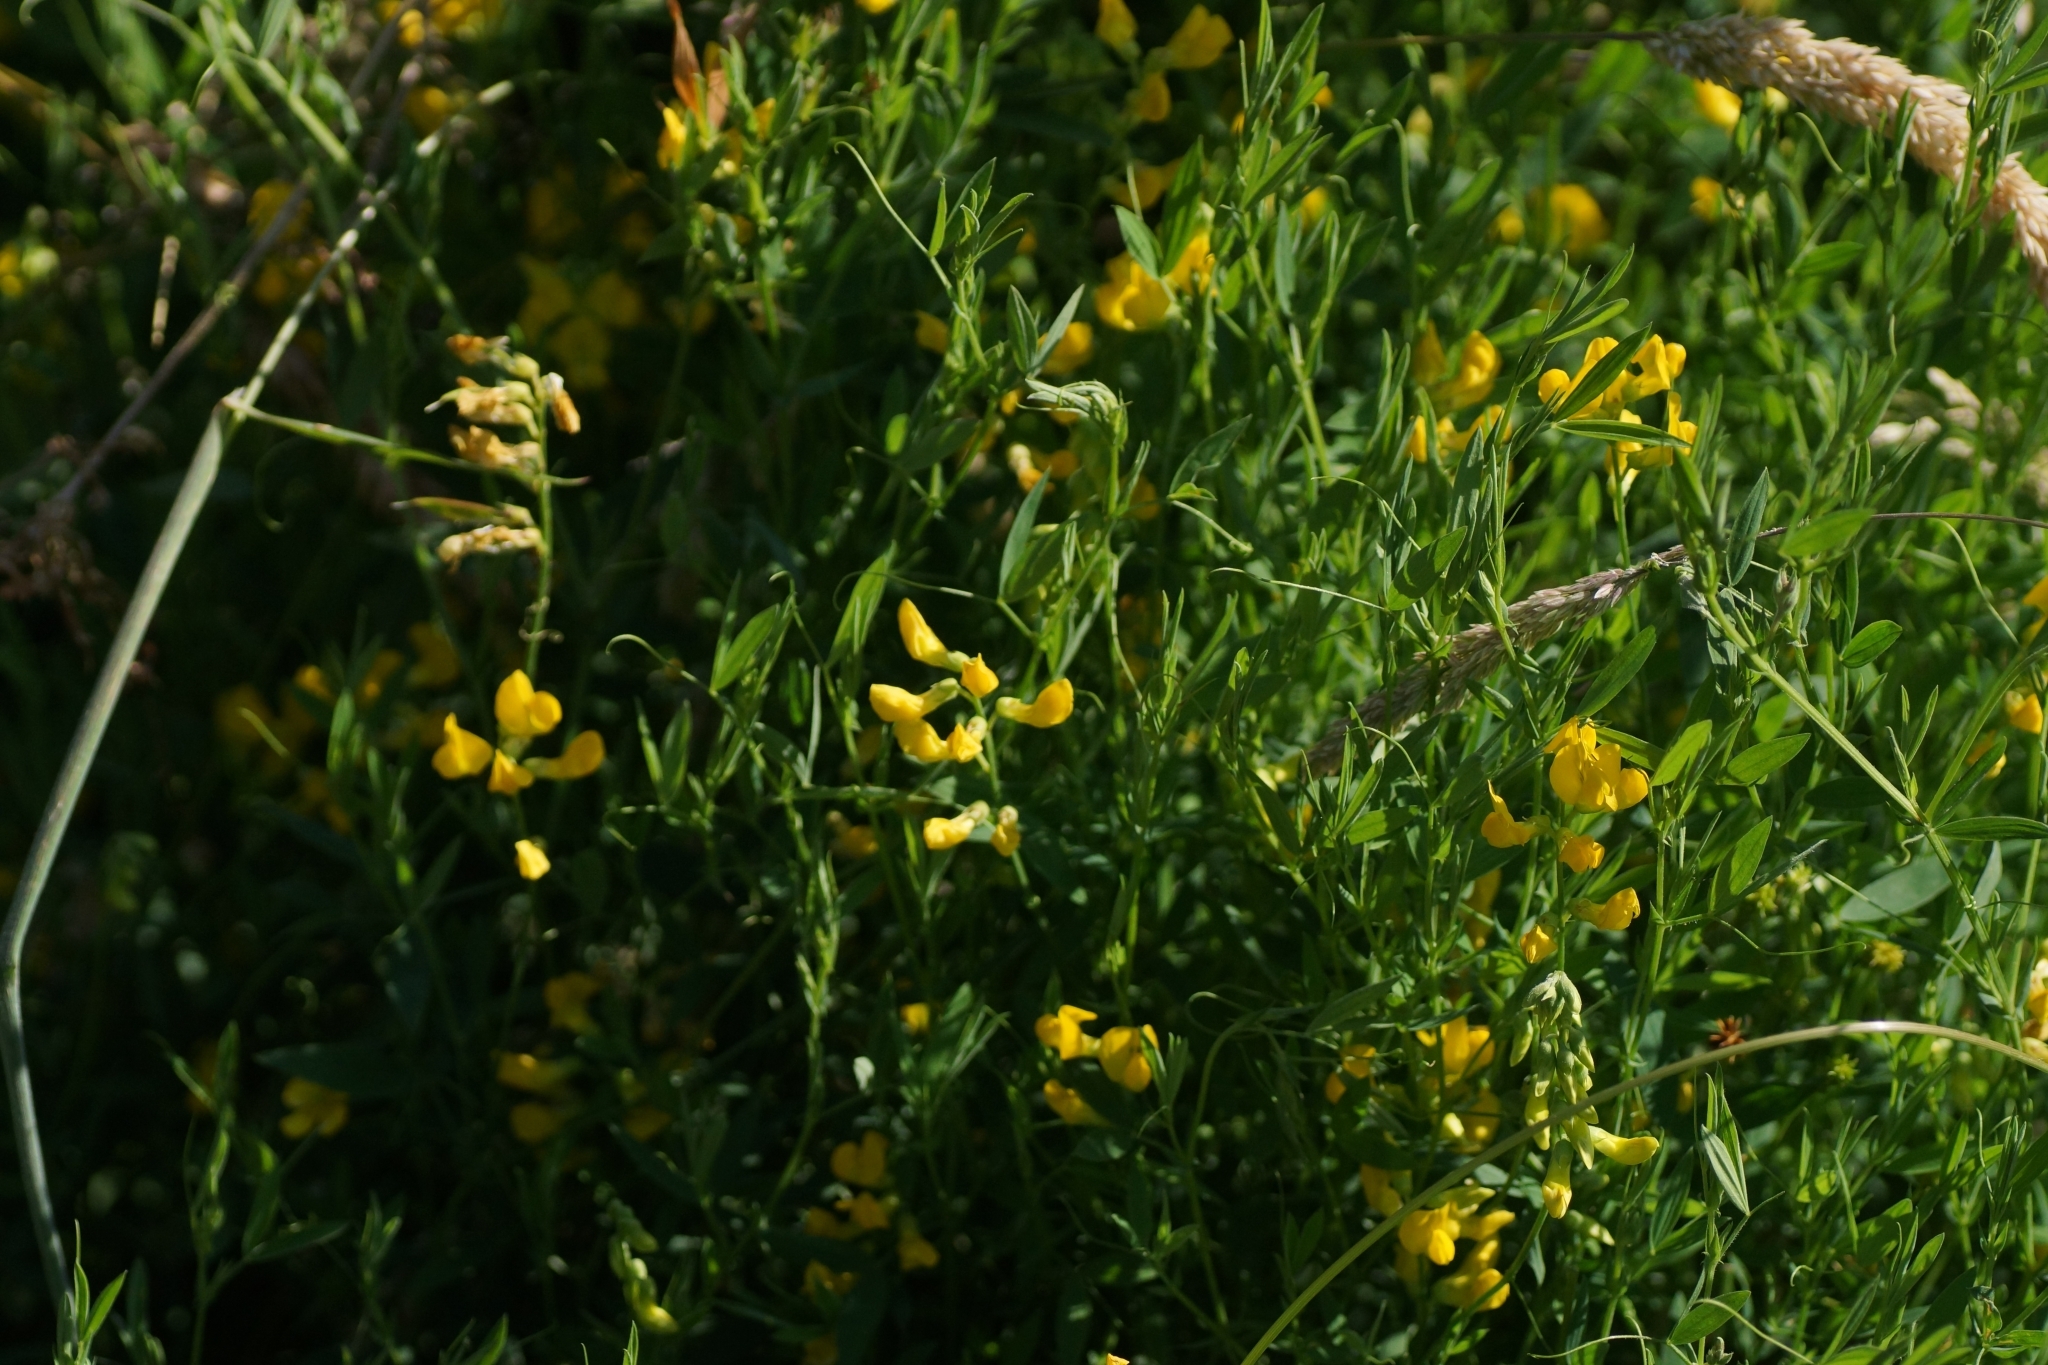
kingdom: Plantae
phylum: Tracheophyta
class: Magnoliopsida
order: Fabales
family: Fabaceae
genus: Lathyrus
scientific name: Lathyrus pratensis
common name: Meadow vetchling
